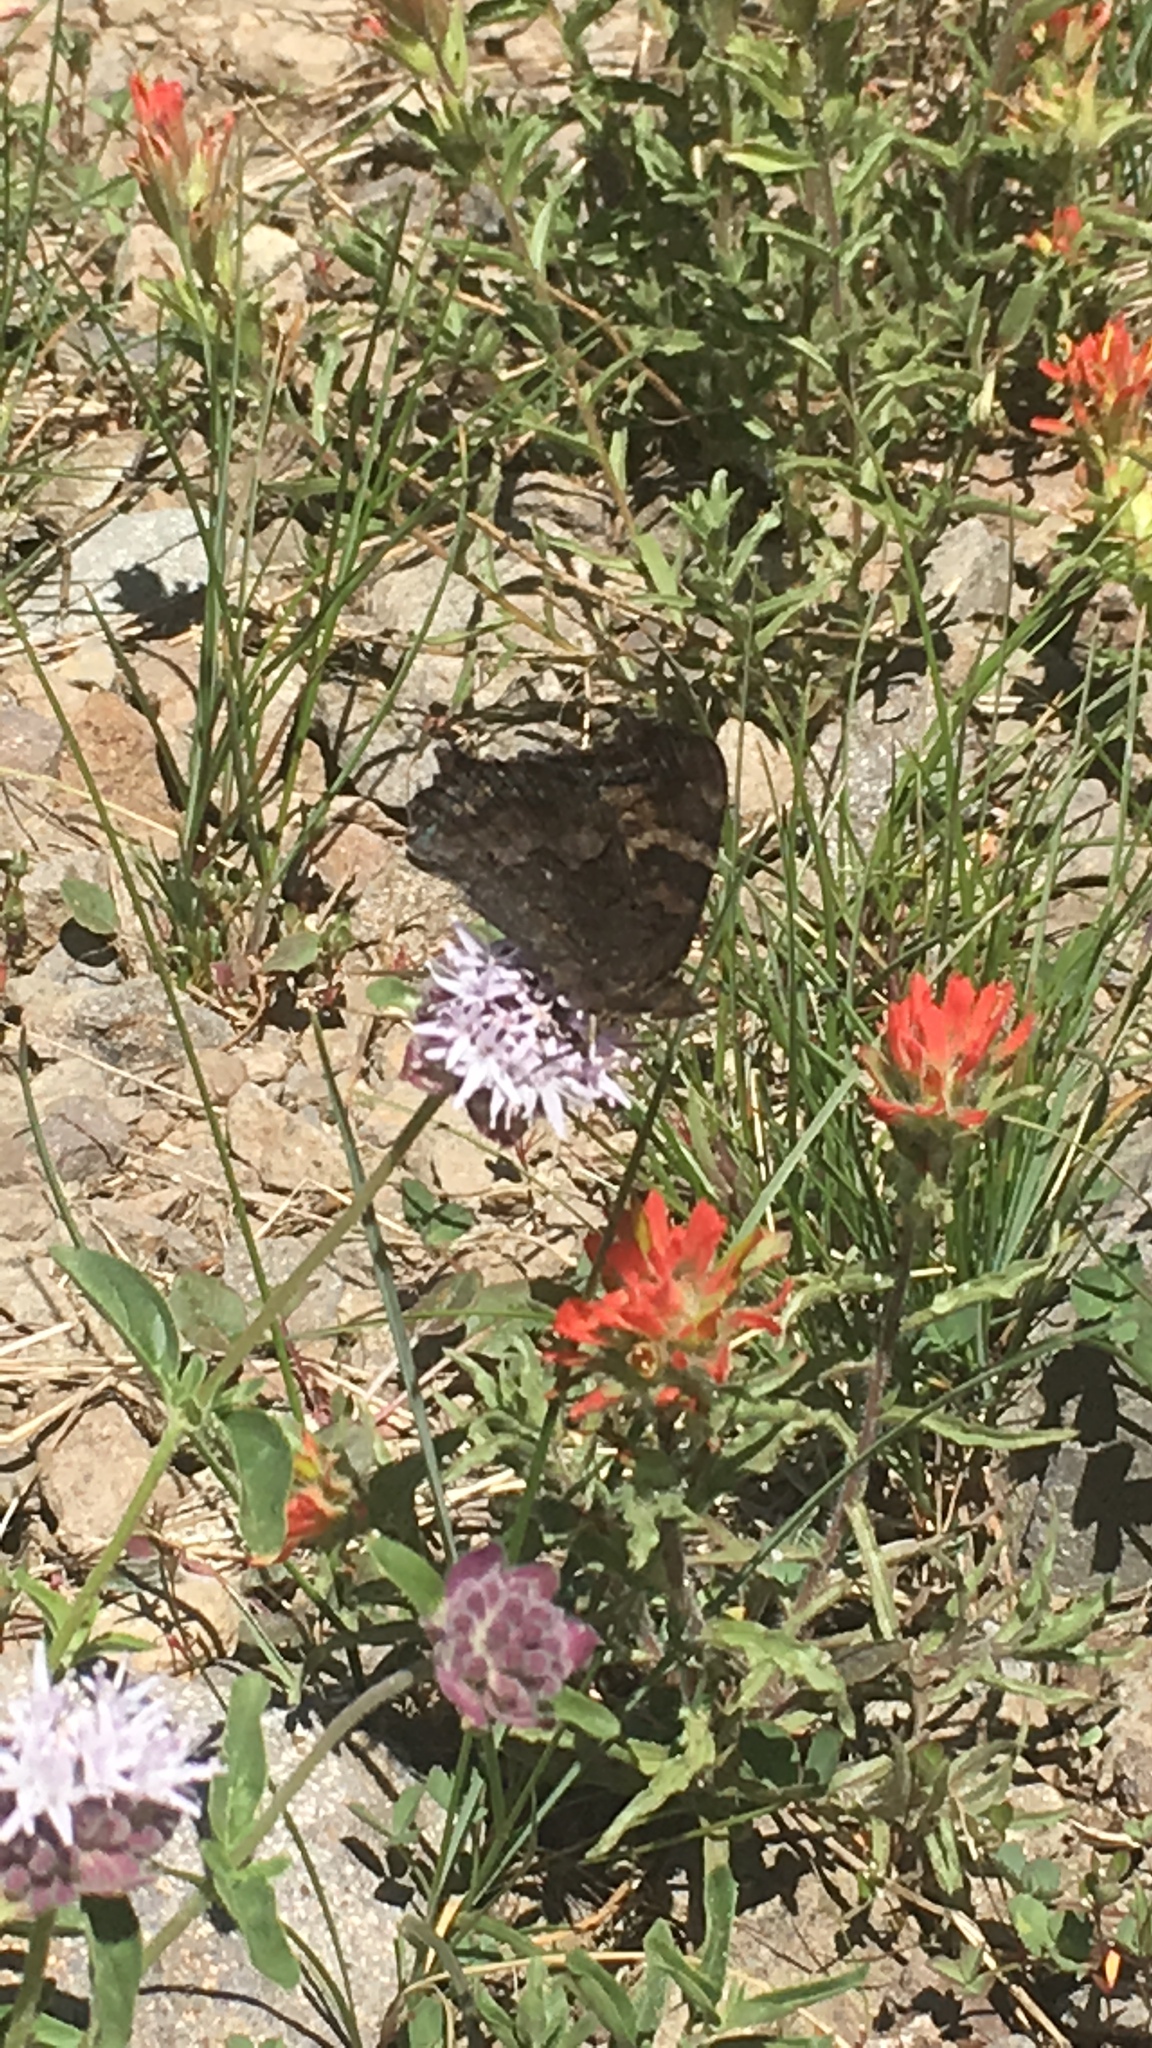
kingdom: Animalia
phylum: Arthropoda
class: Insecta
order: Lepidoptera
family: Nymphalidae
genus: Nymphalis
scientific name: Nymphalis californica
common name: California tortoiseshell
